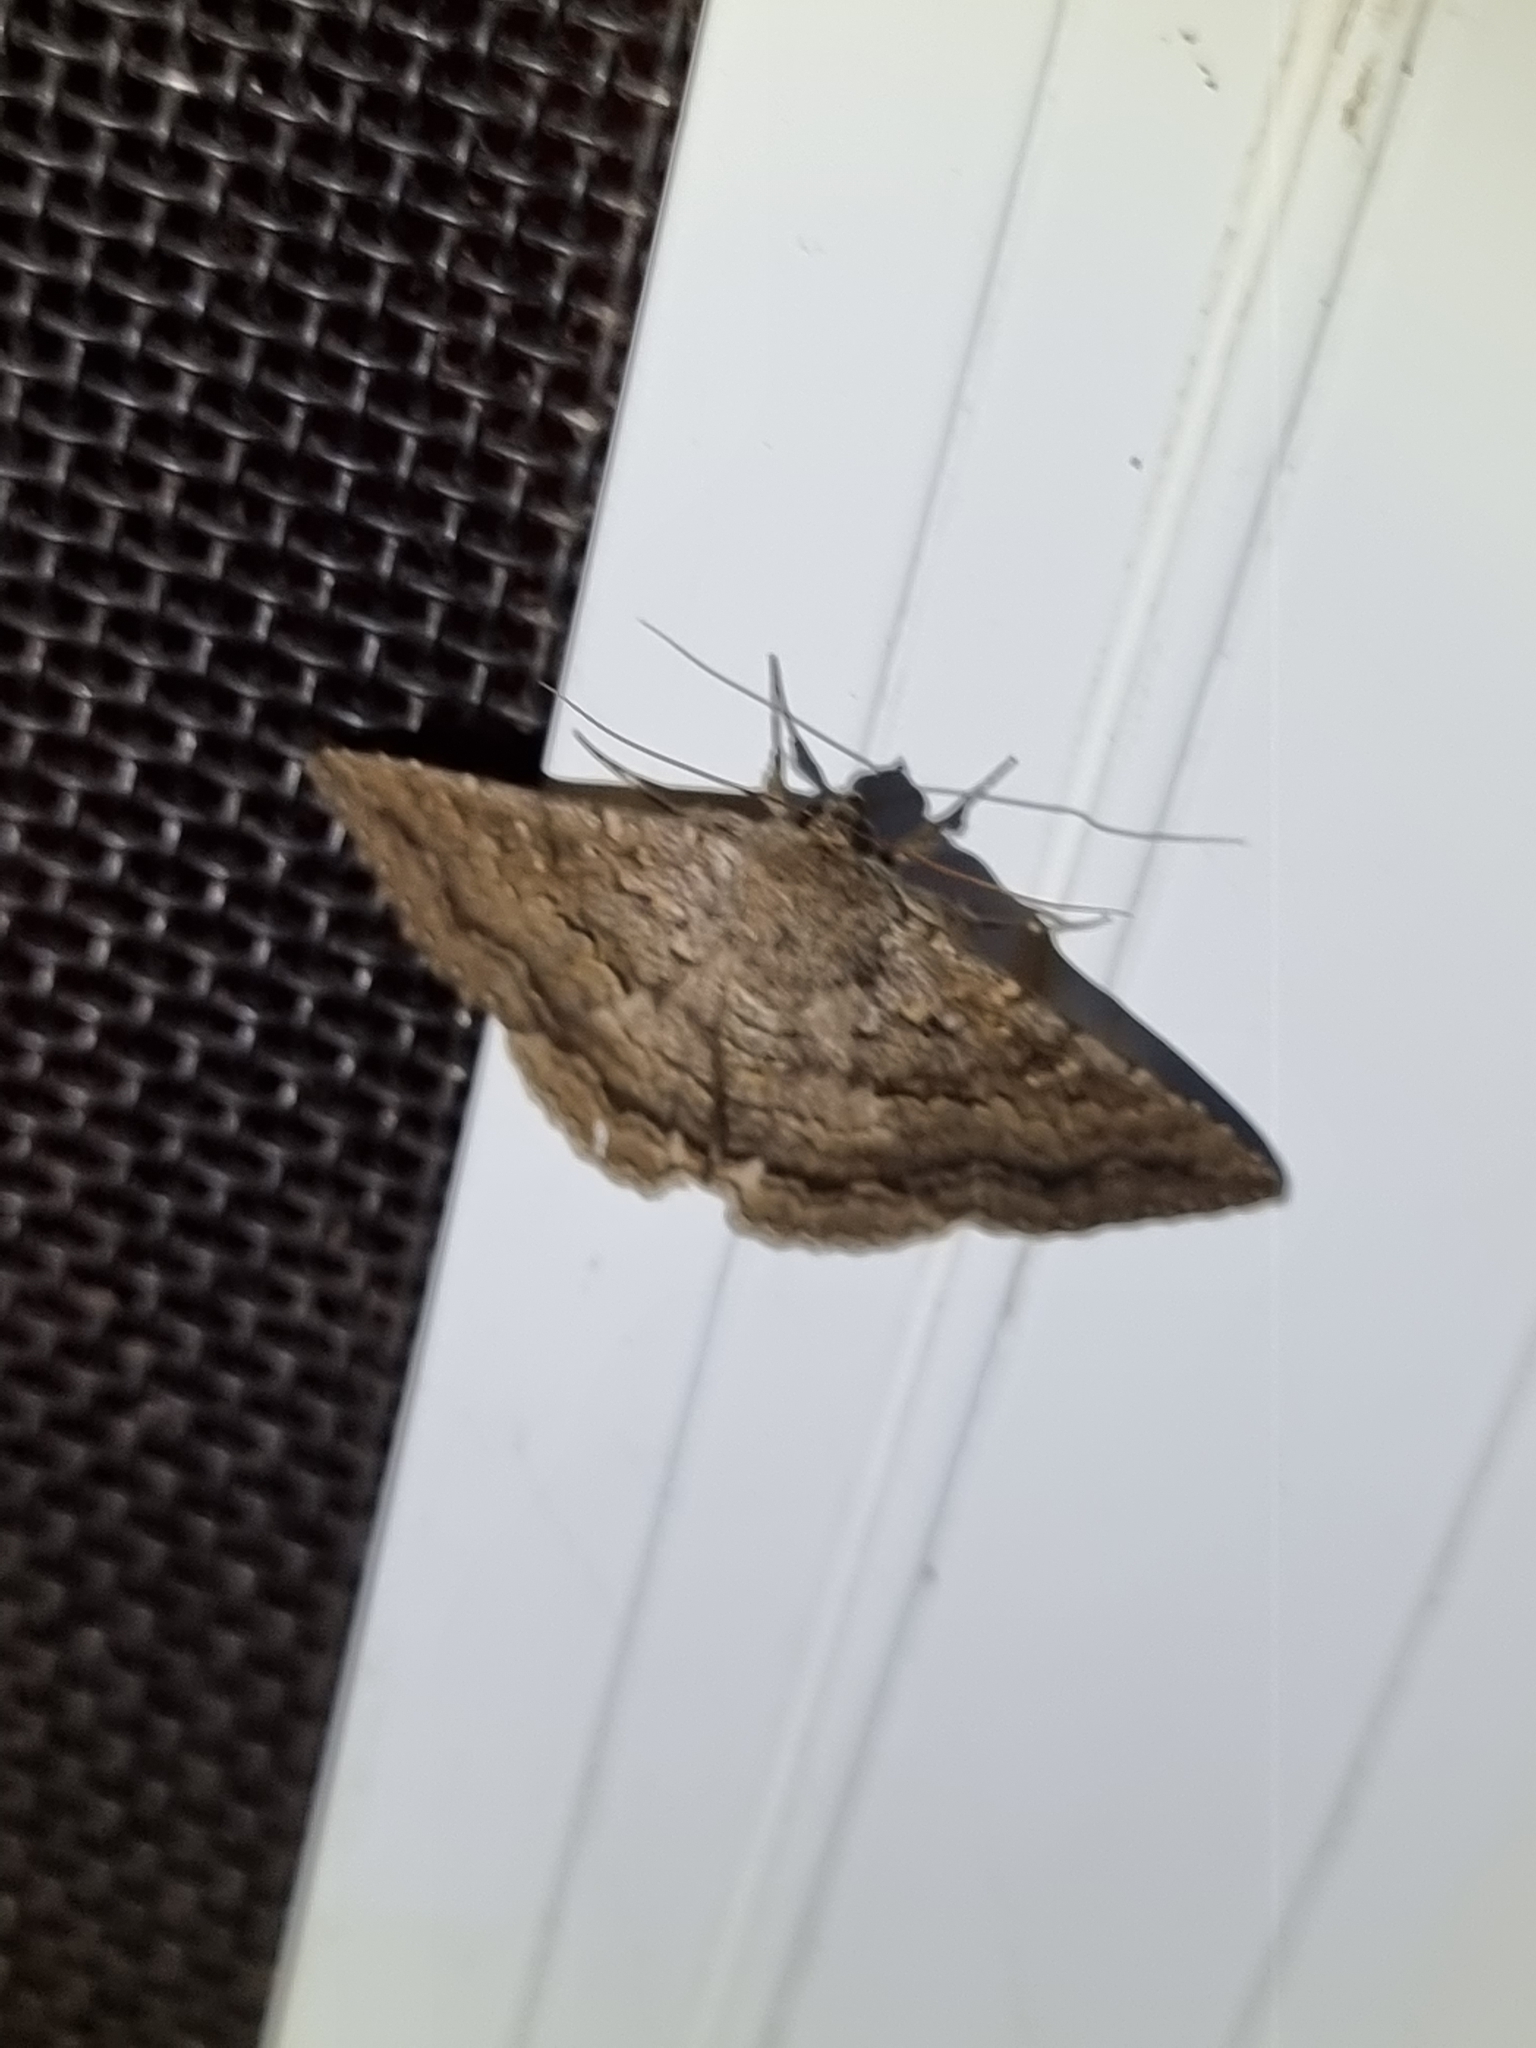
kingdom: Animalia
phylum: Arthropoda
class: Insecta
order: Lepidoptera
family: Erebidae
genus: Eudesmeola
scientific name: Eudesmeola lawsoni
